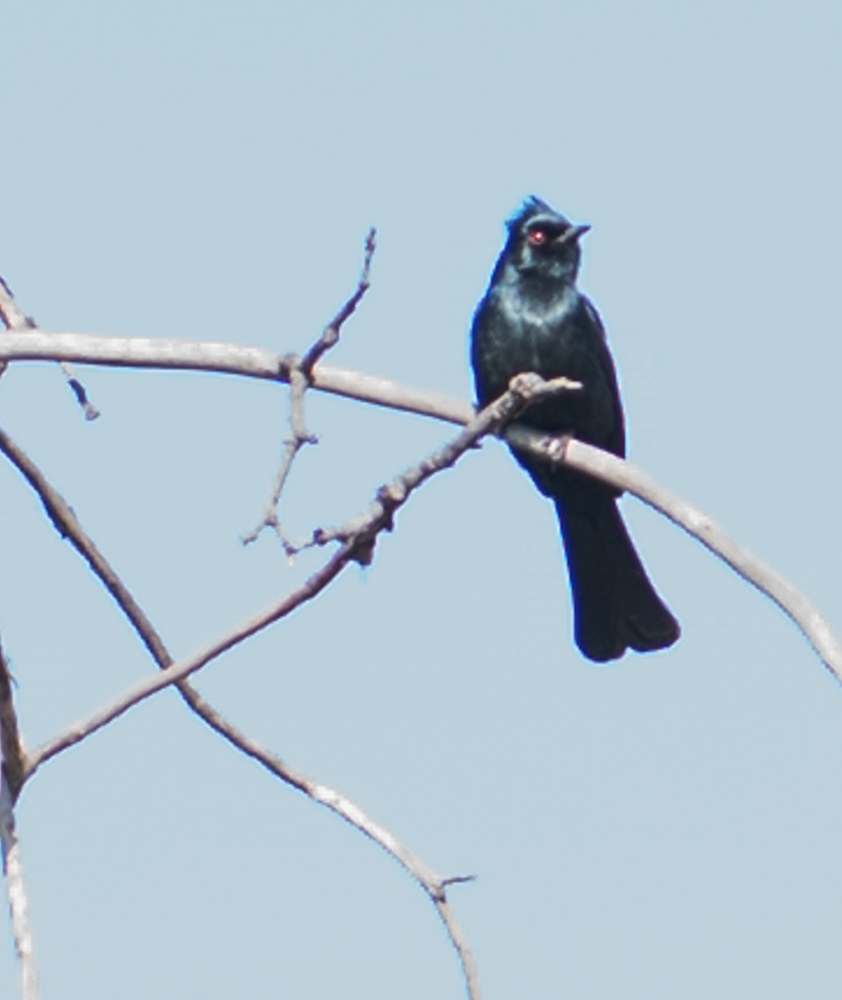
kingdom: Animalia
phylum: Chordata
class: Aves
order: Passeriformes
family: Ptilogonatidae
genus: Phainopepla
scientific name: Phainopepla nitens
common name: Phainopepla
